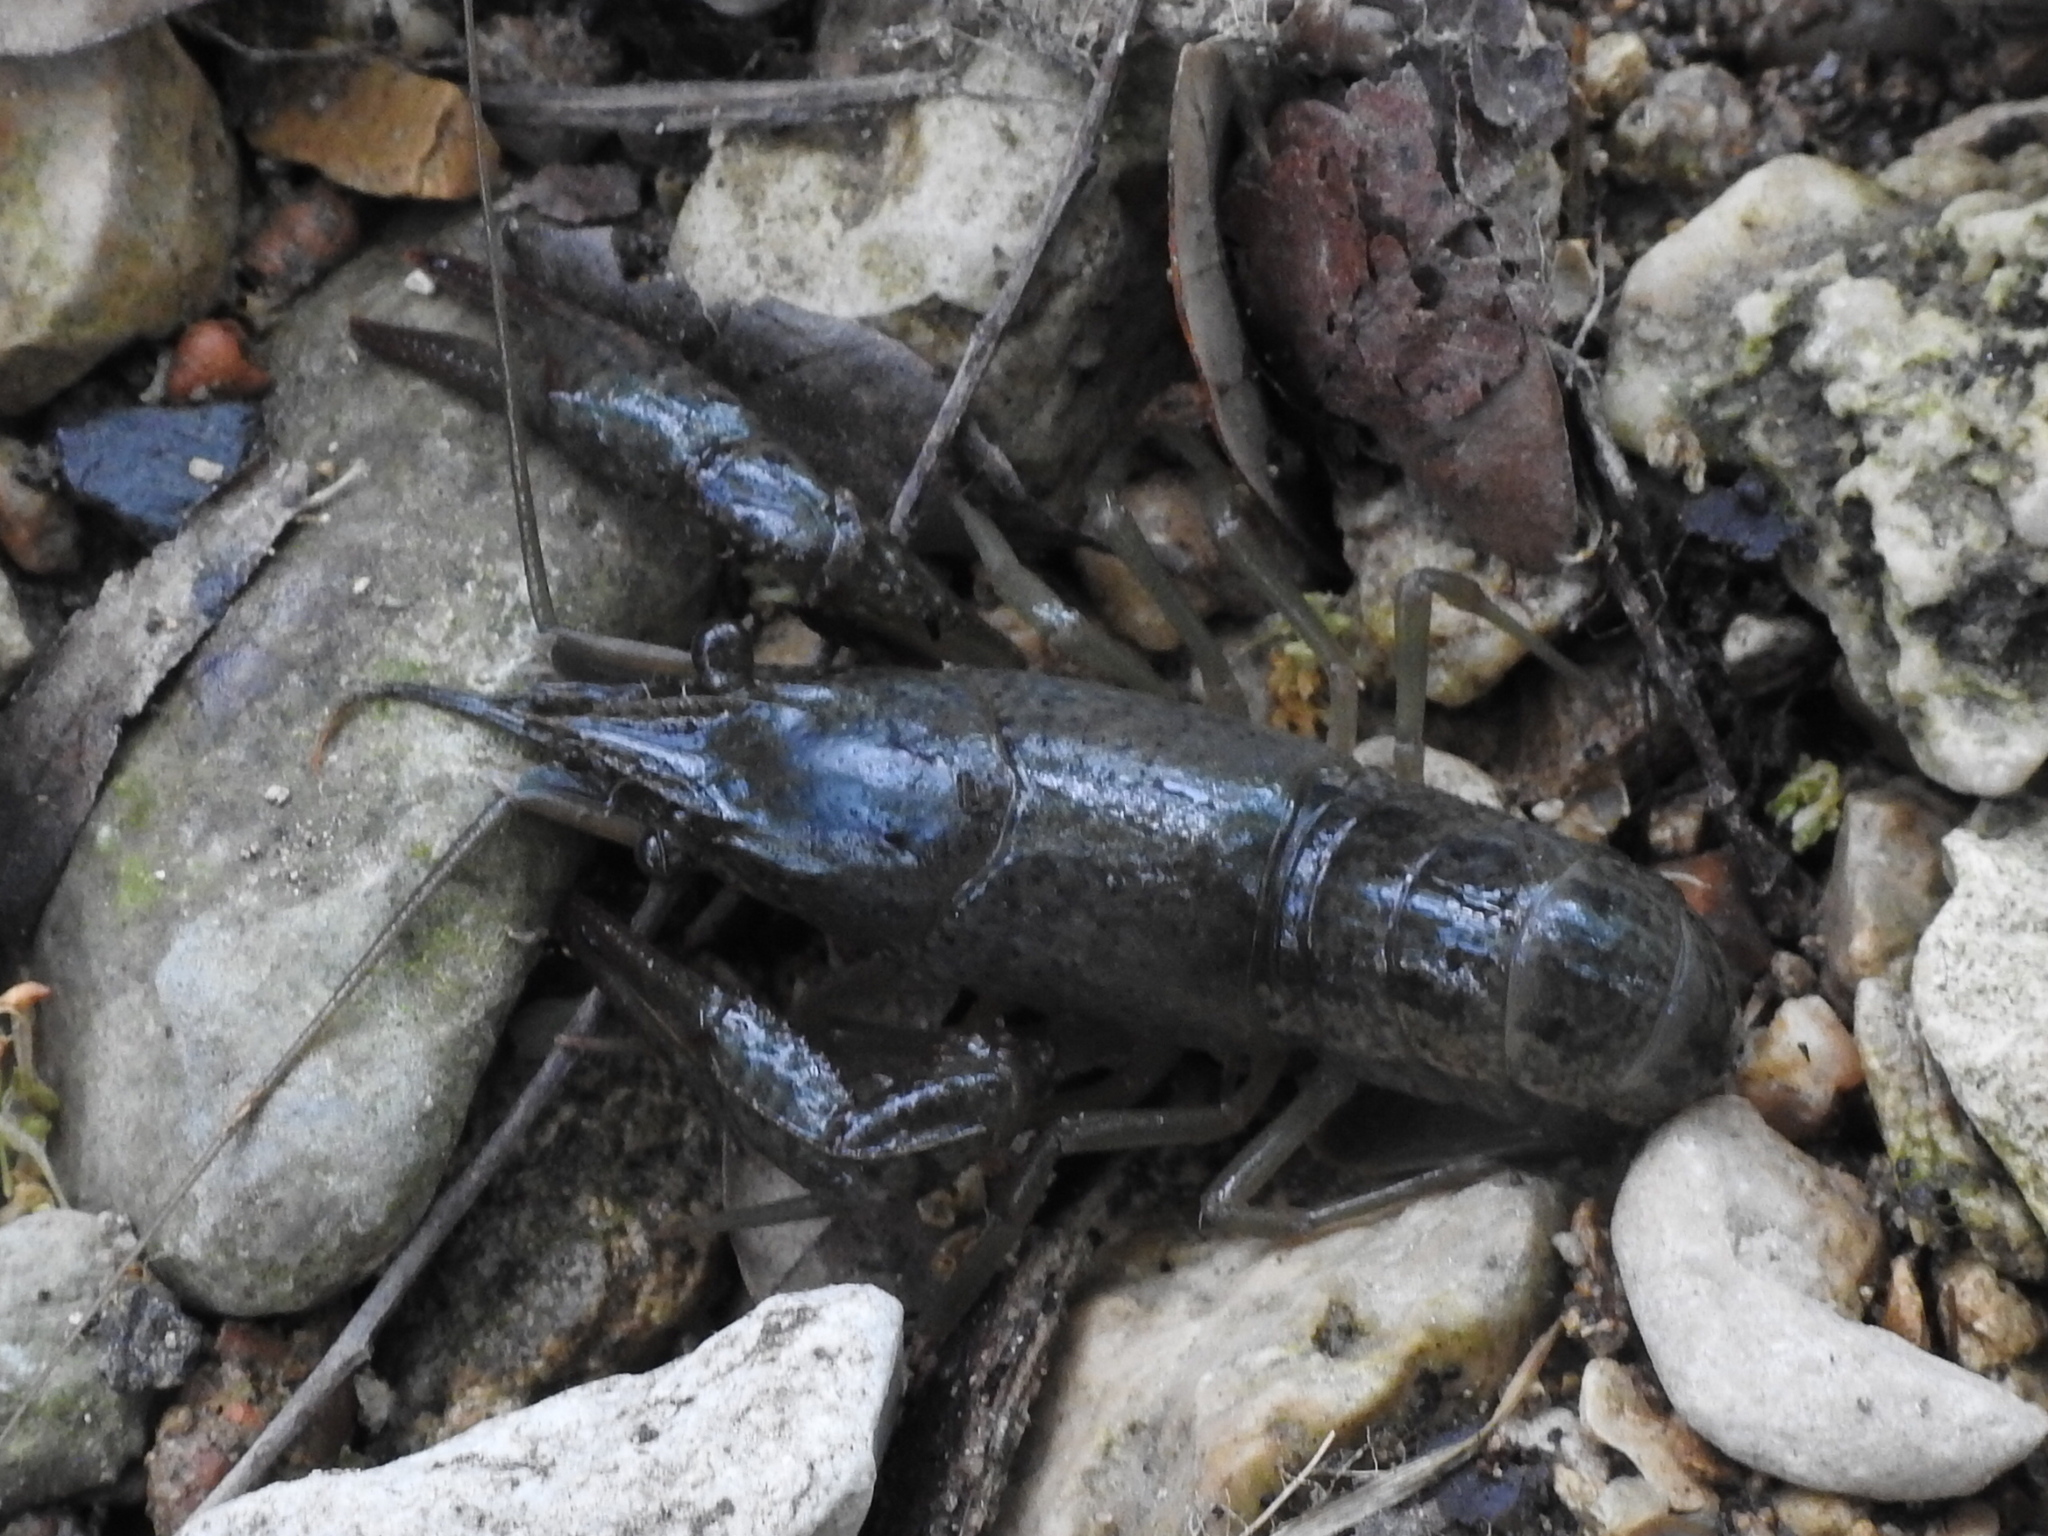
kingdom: Animalia
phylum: Arthropoda
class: Malacostraca
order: Decapoda
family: Cambaridae
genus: Procambarus
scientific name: Procambarus clarkii
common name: Red swamp crayfish
